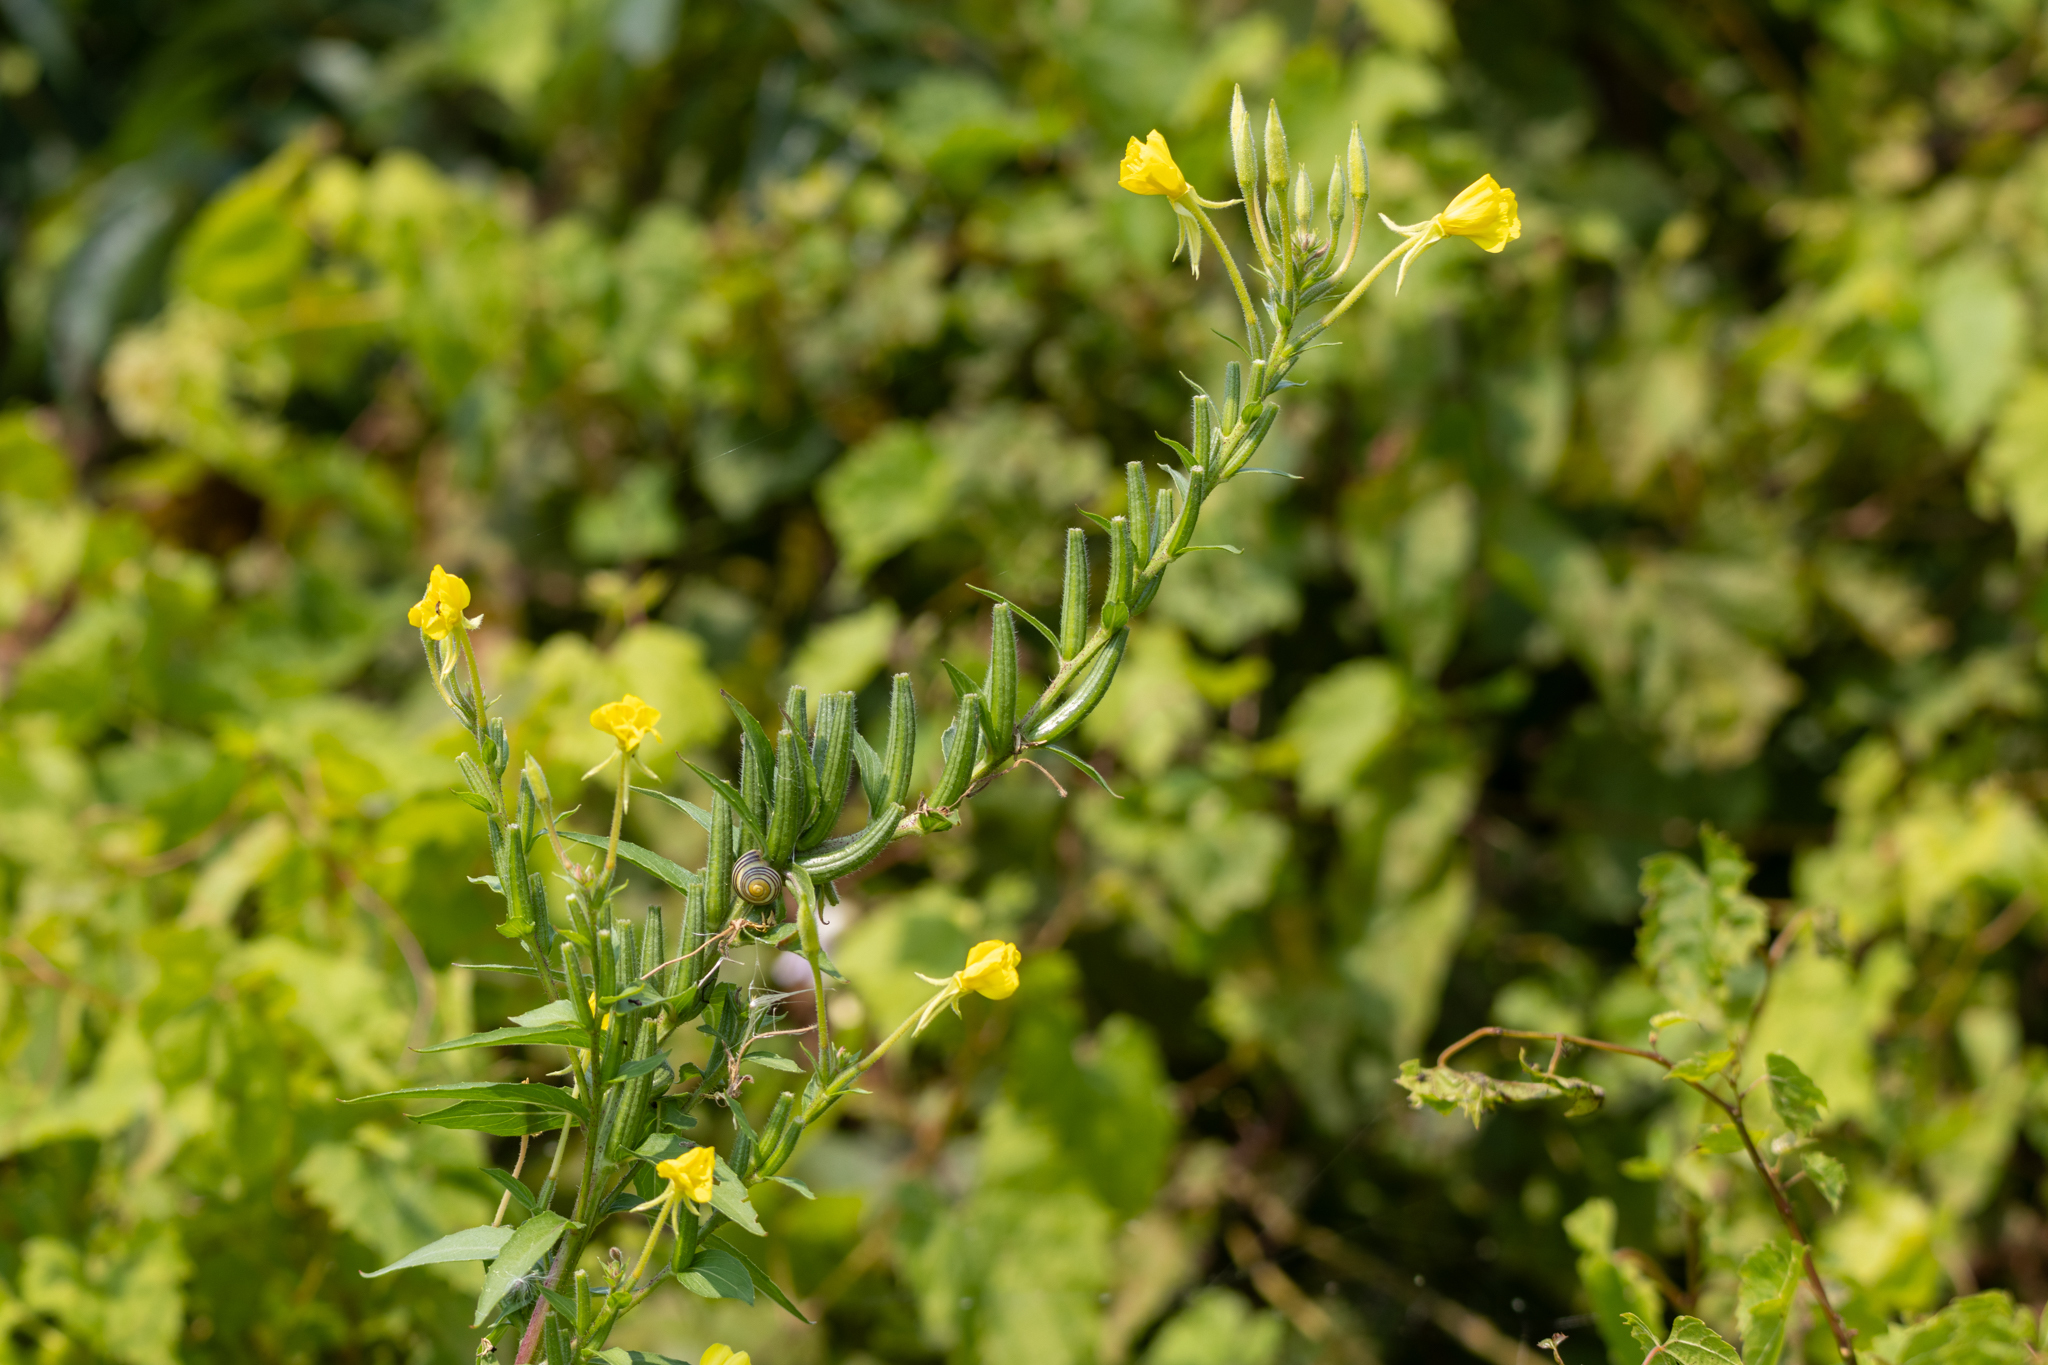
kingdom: Plantae
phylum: Tracheophyta
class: Magnoliopsida
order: Myrtales
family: Onagraceae
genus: Oenothera
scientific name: Oenothera parviflora
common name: Least evening-primrose
